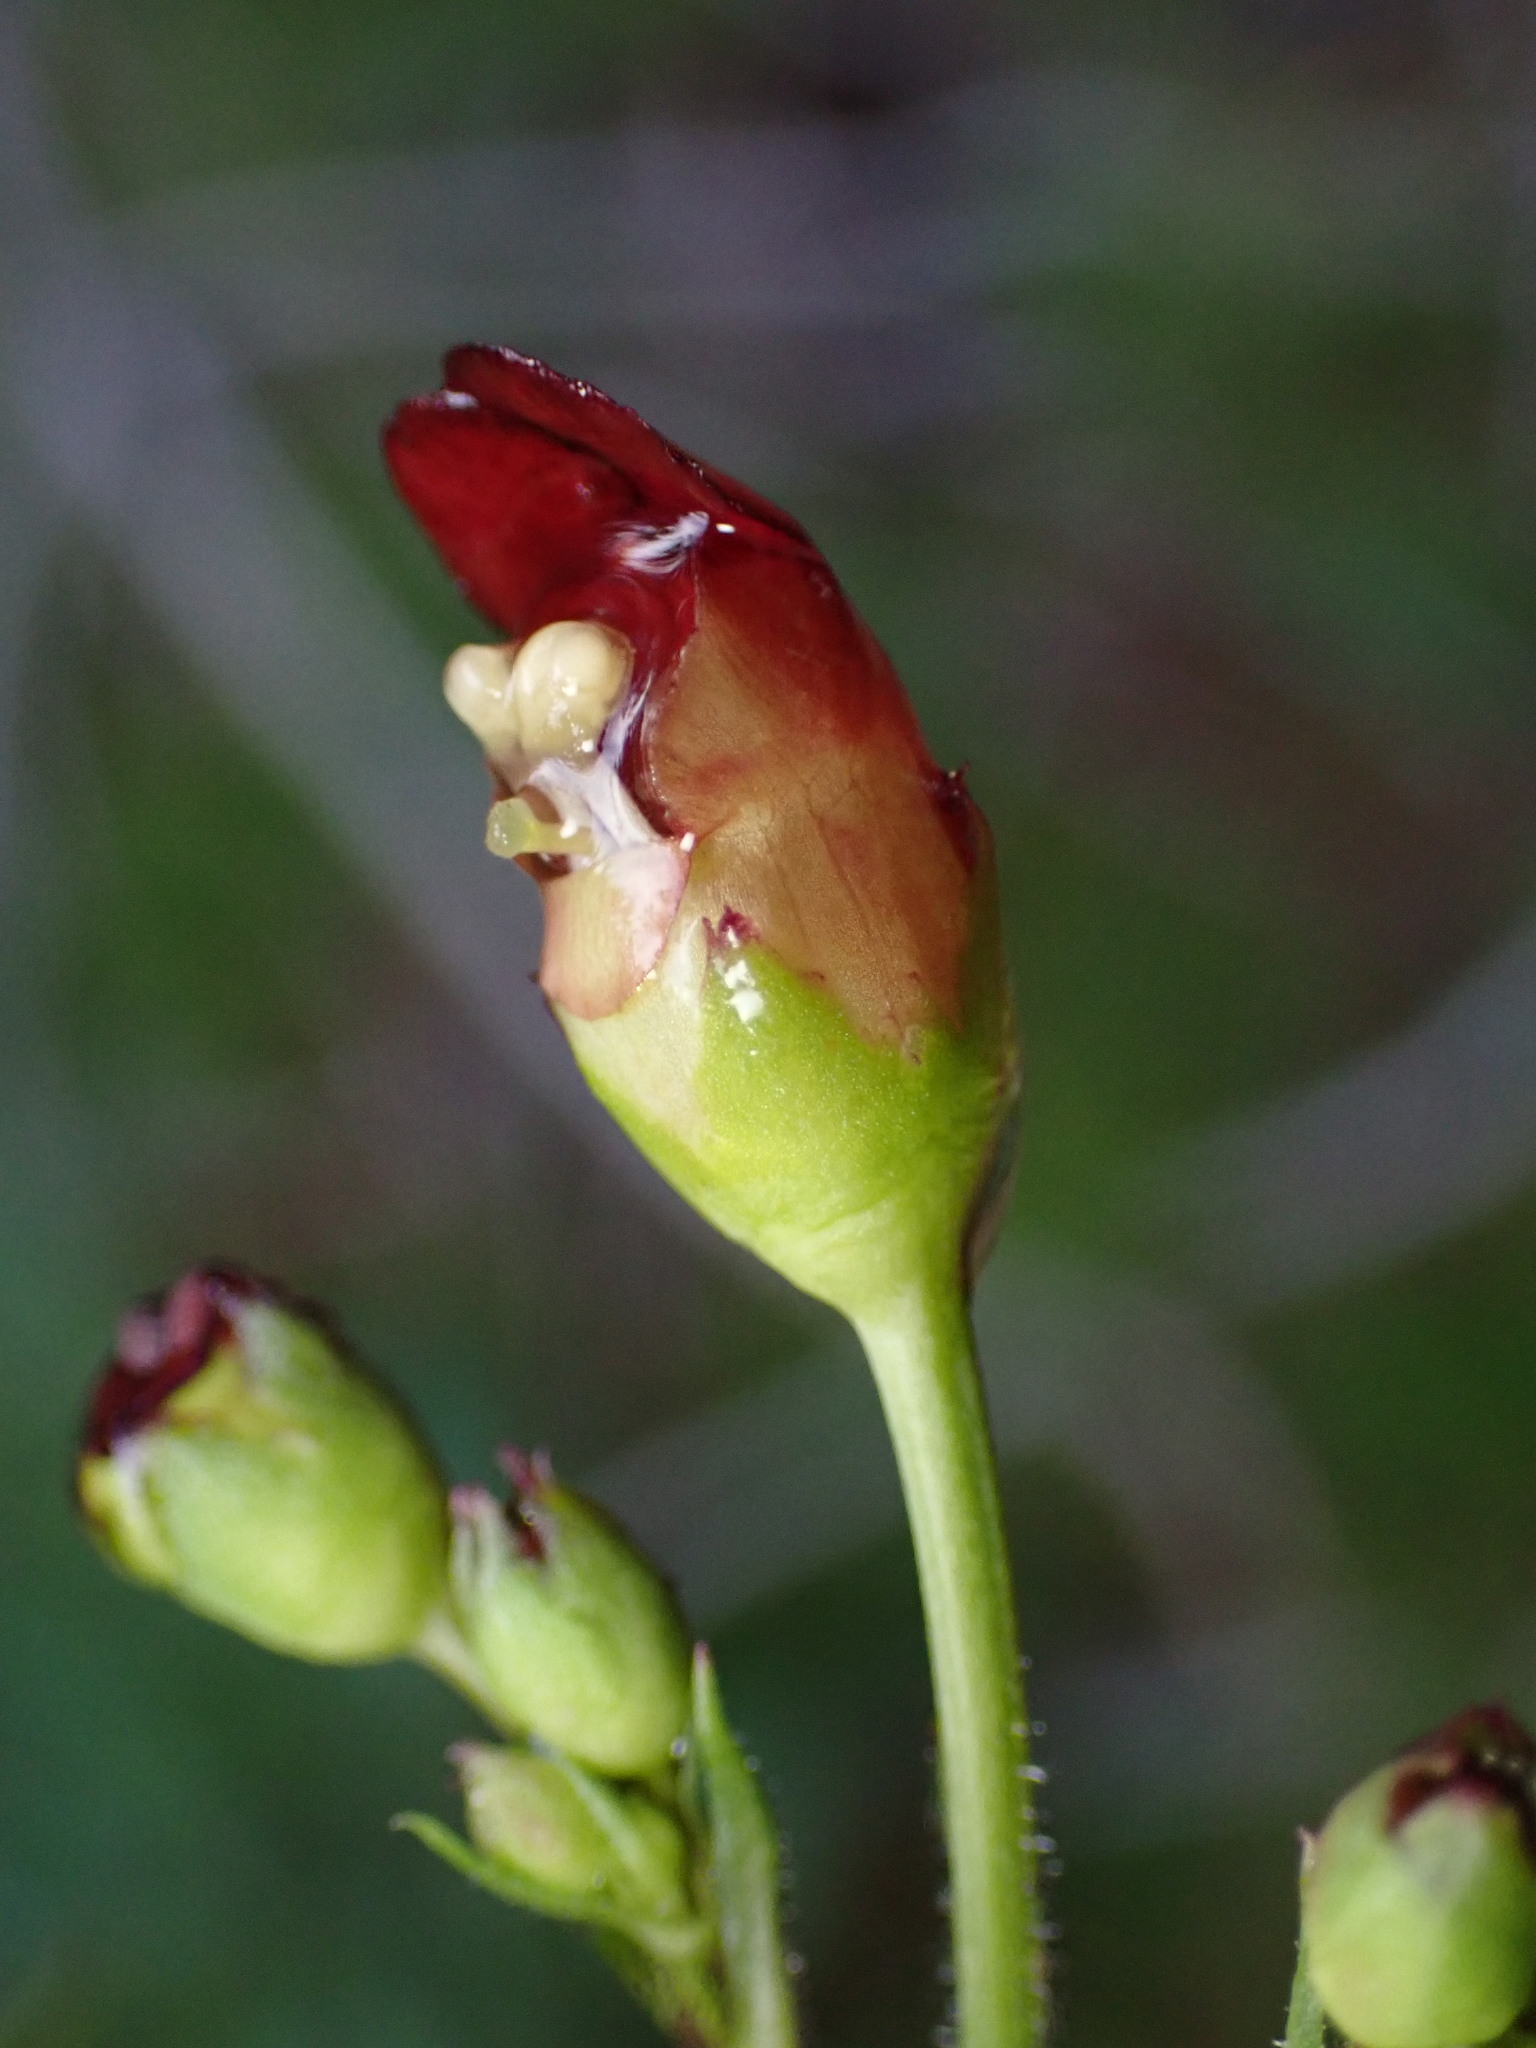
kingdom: Plantae
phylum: Tracheophyta
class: Magnoliopsida
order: Lamiales
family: Scrophulariaceae
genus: Scrophularia
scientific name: Scrophularia californica
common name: California figwort
